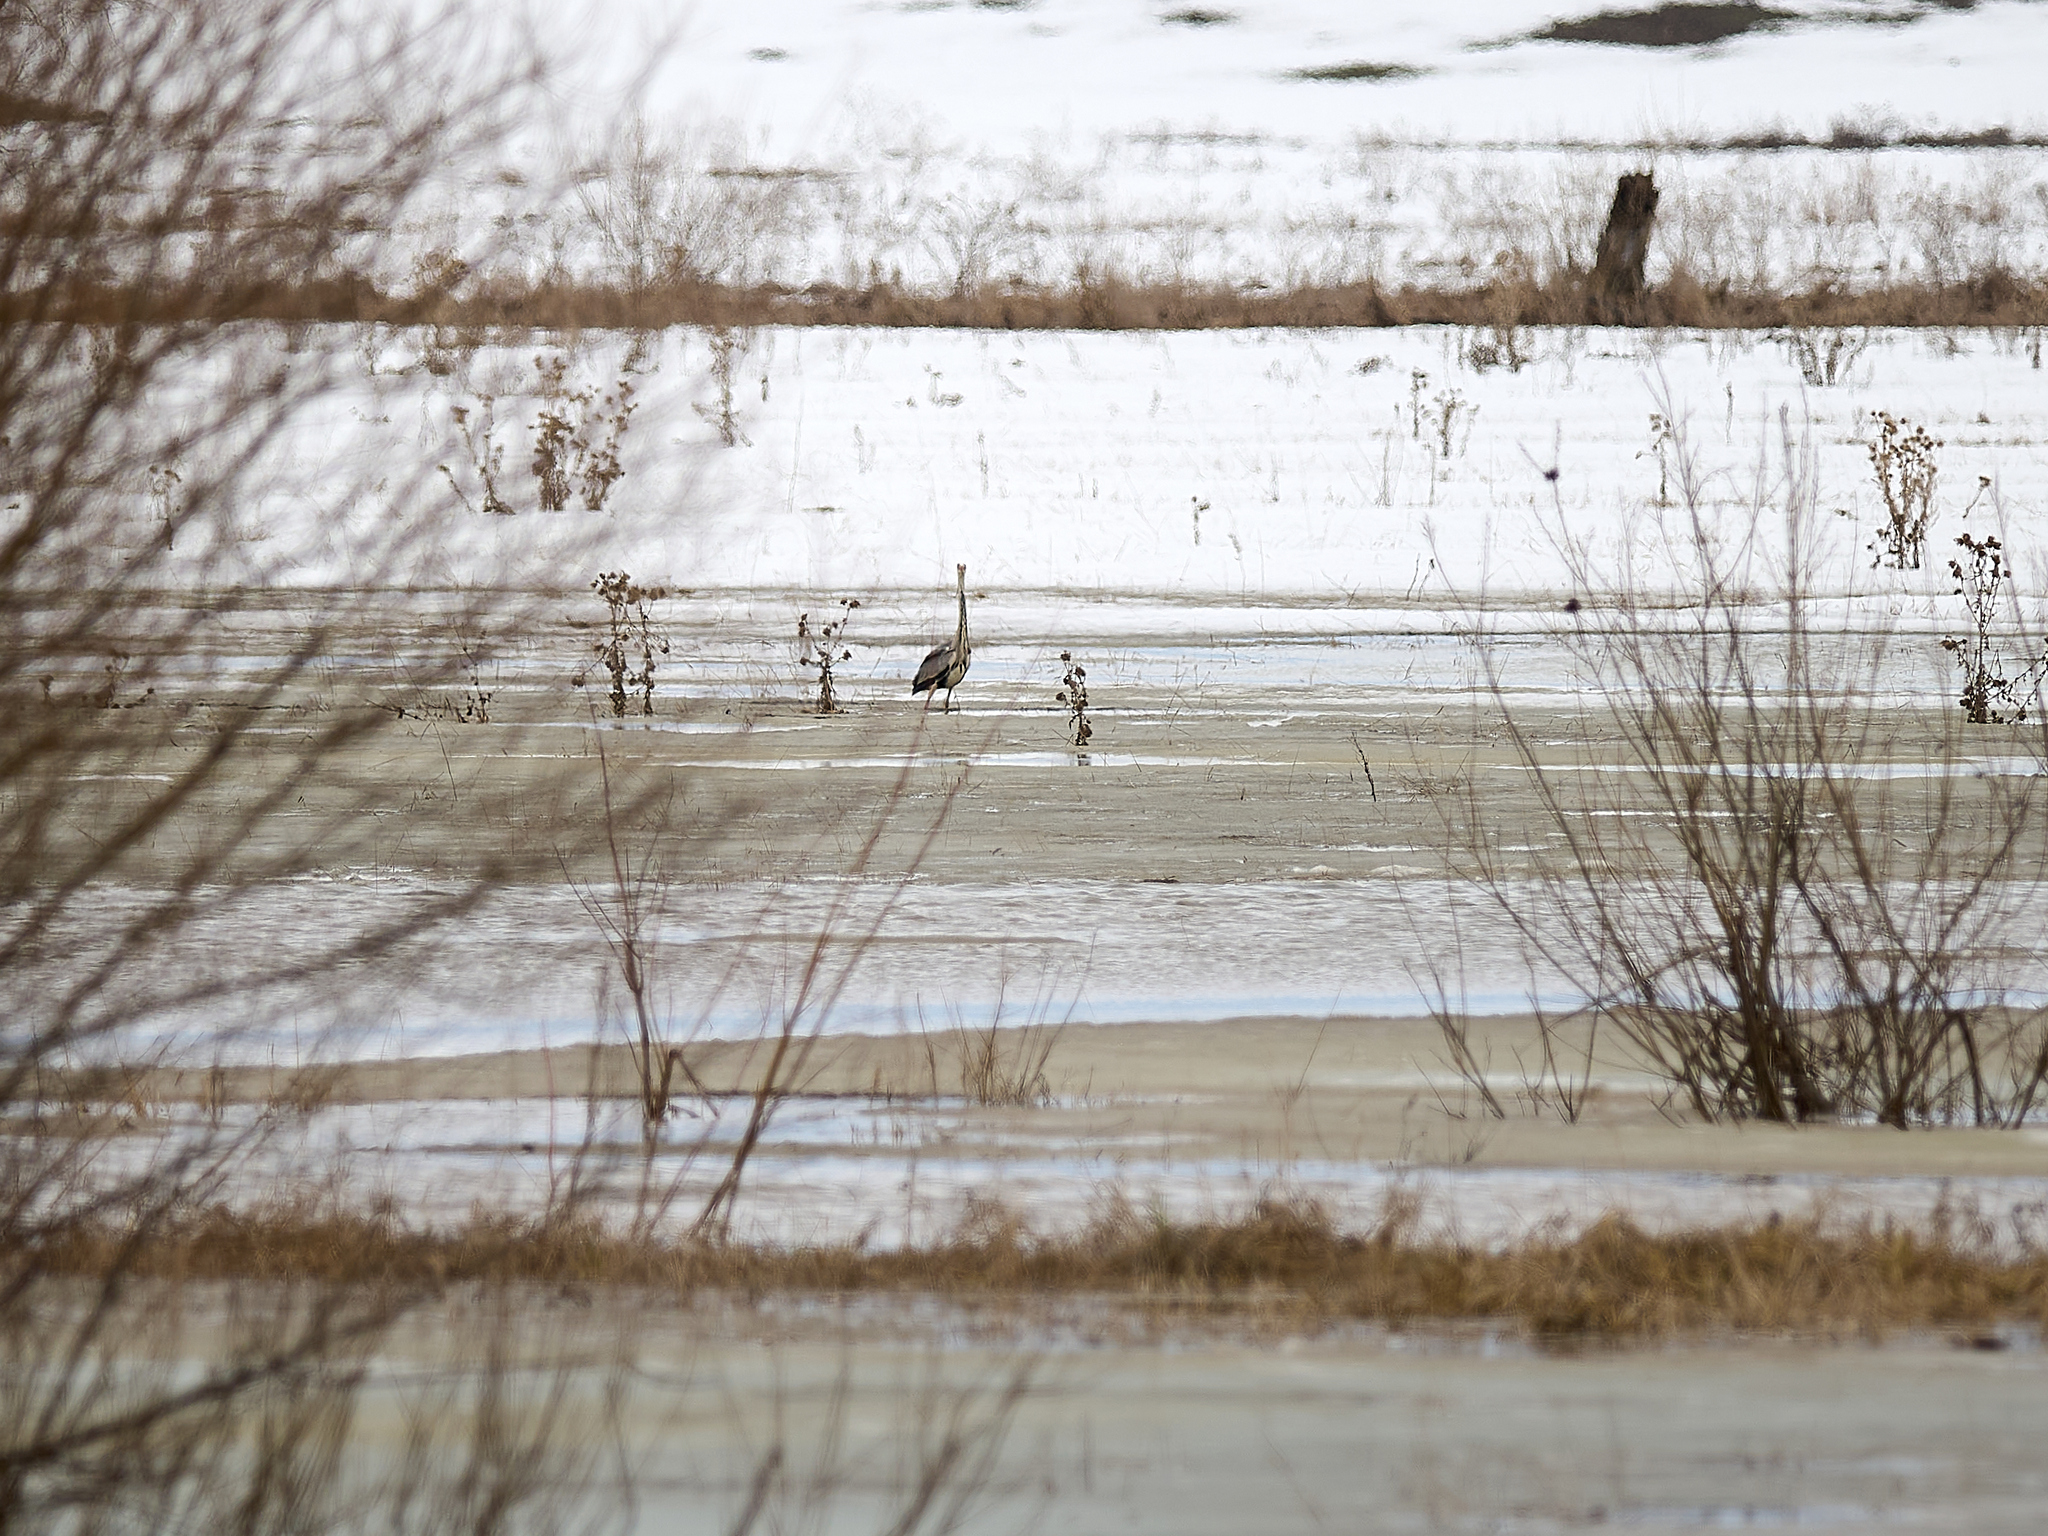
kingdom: Animalia
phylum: Chordata
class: Aves
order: Pelecaniformes
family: Ardeidae
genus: Ardea
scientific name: Ardea cinerea
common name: Grey heron
